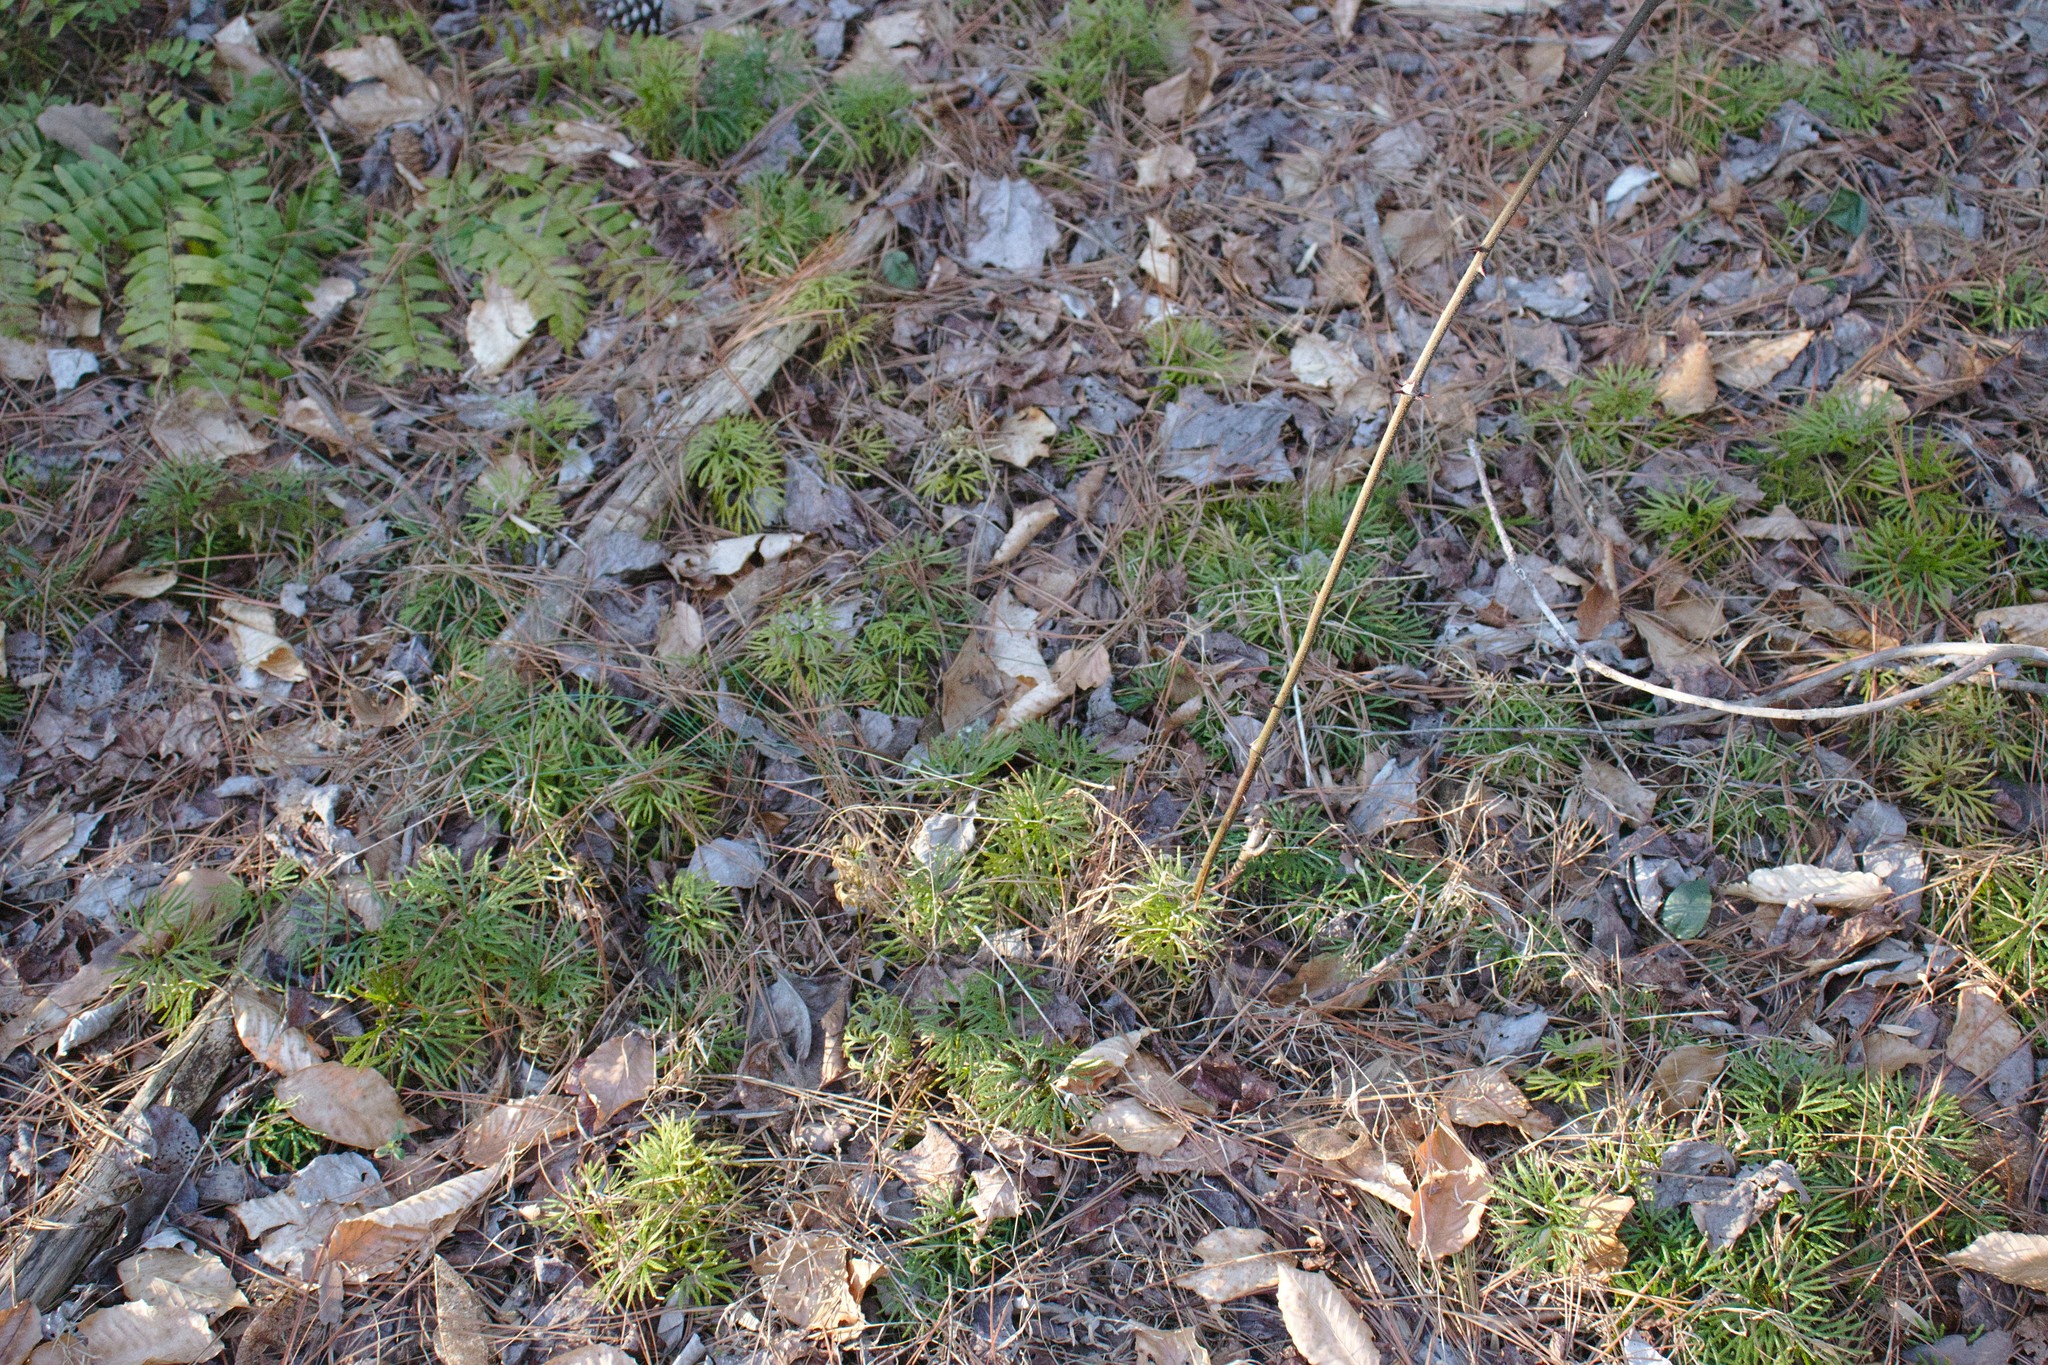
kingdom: Plantae
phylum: Tracheophyta
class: Lycopodiopsida
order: Lycopodiales
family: Lycopodiaceae
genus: Diphasiastrum
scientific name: Diphasiastrum digitatum
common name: Southern running-pine
